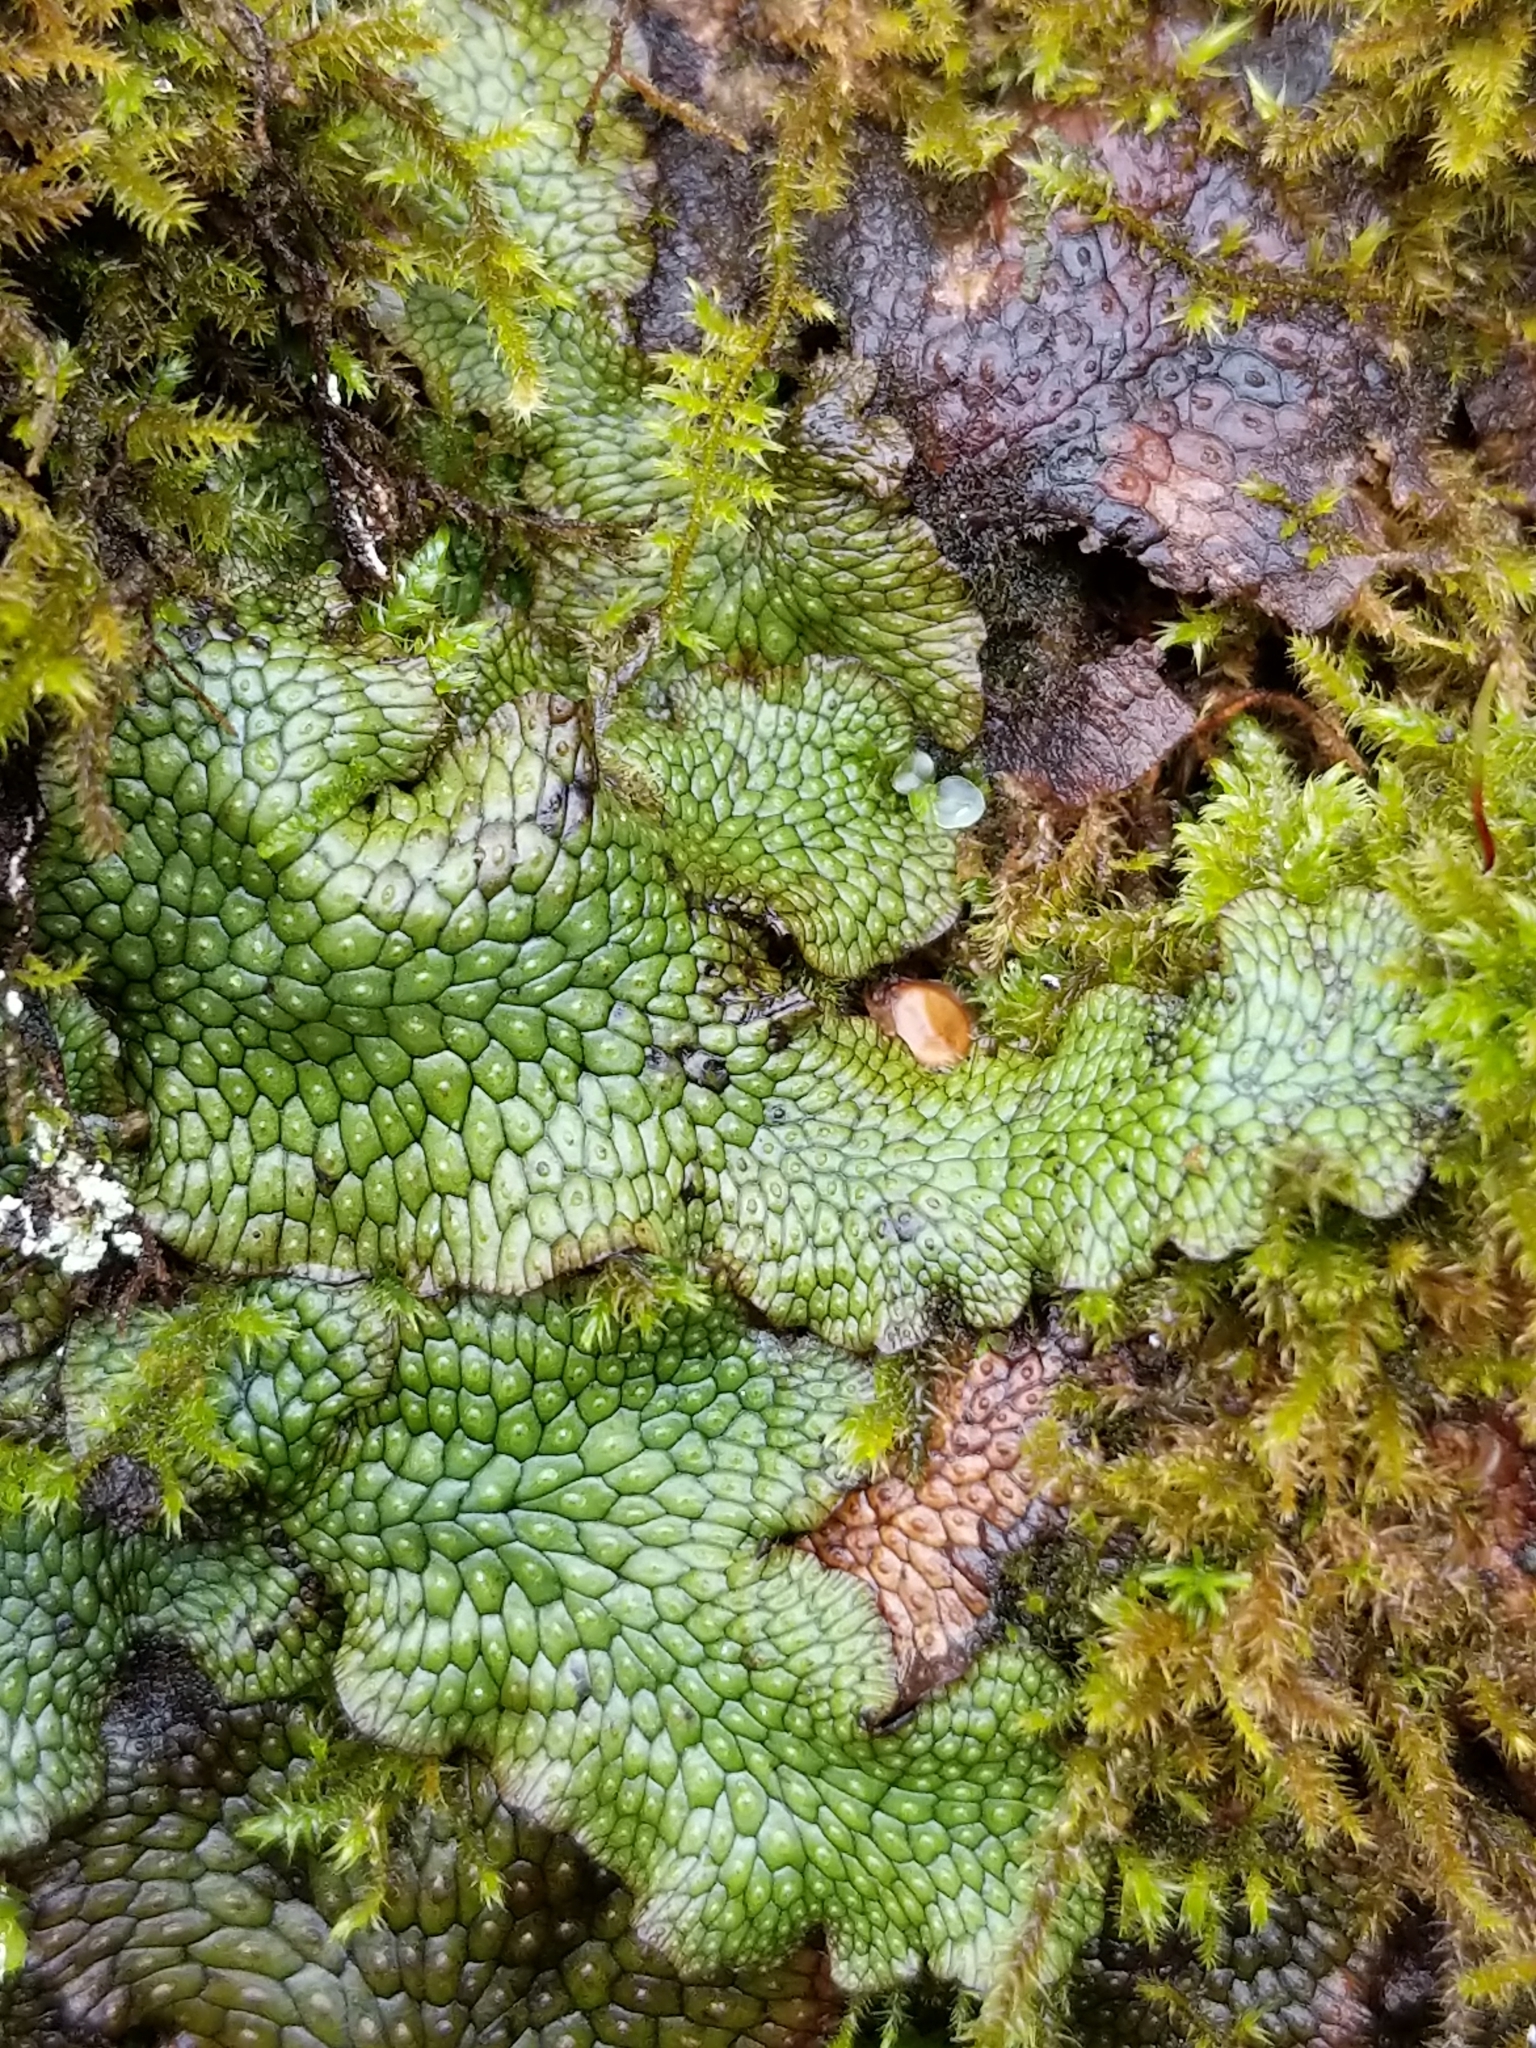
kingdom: Plantae
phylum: Marchantiophyta
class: Marchantiopsida
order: Marchantiales
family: Conocephalaceae
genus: Conocephalum
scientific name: Conocephalum salebrosum
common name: Cat-tongue liverwort
